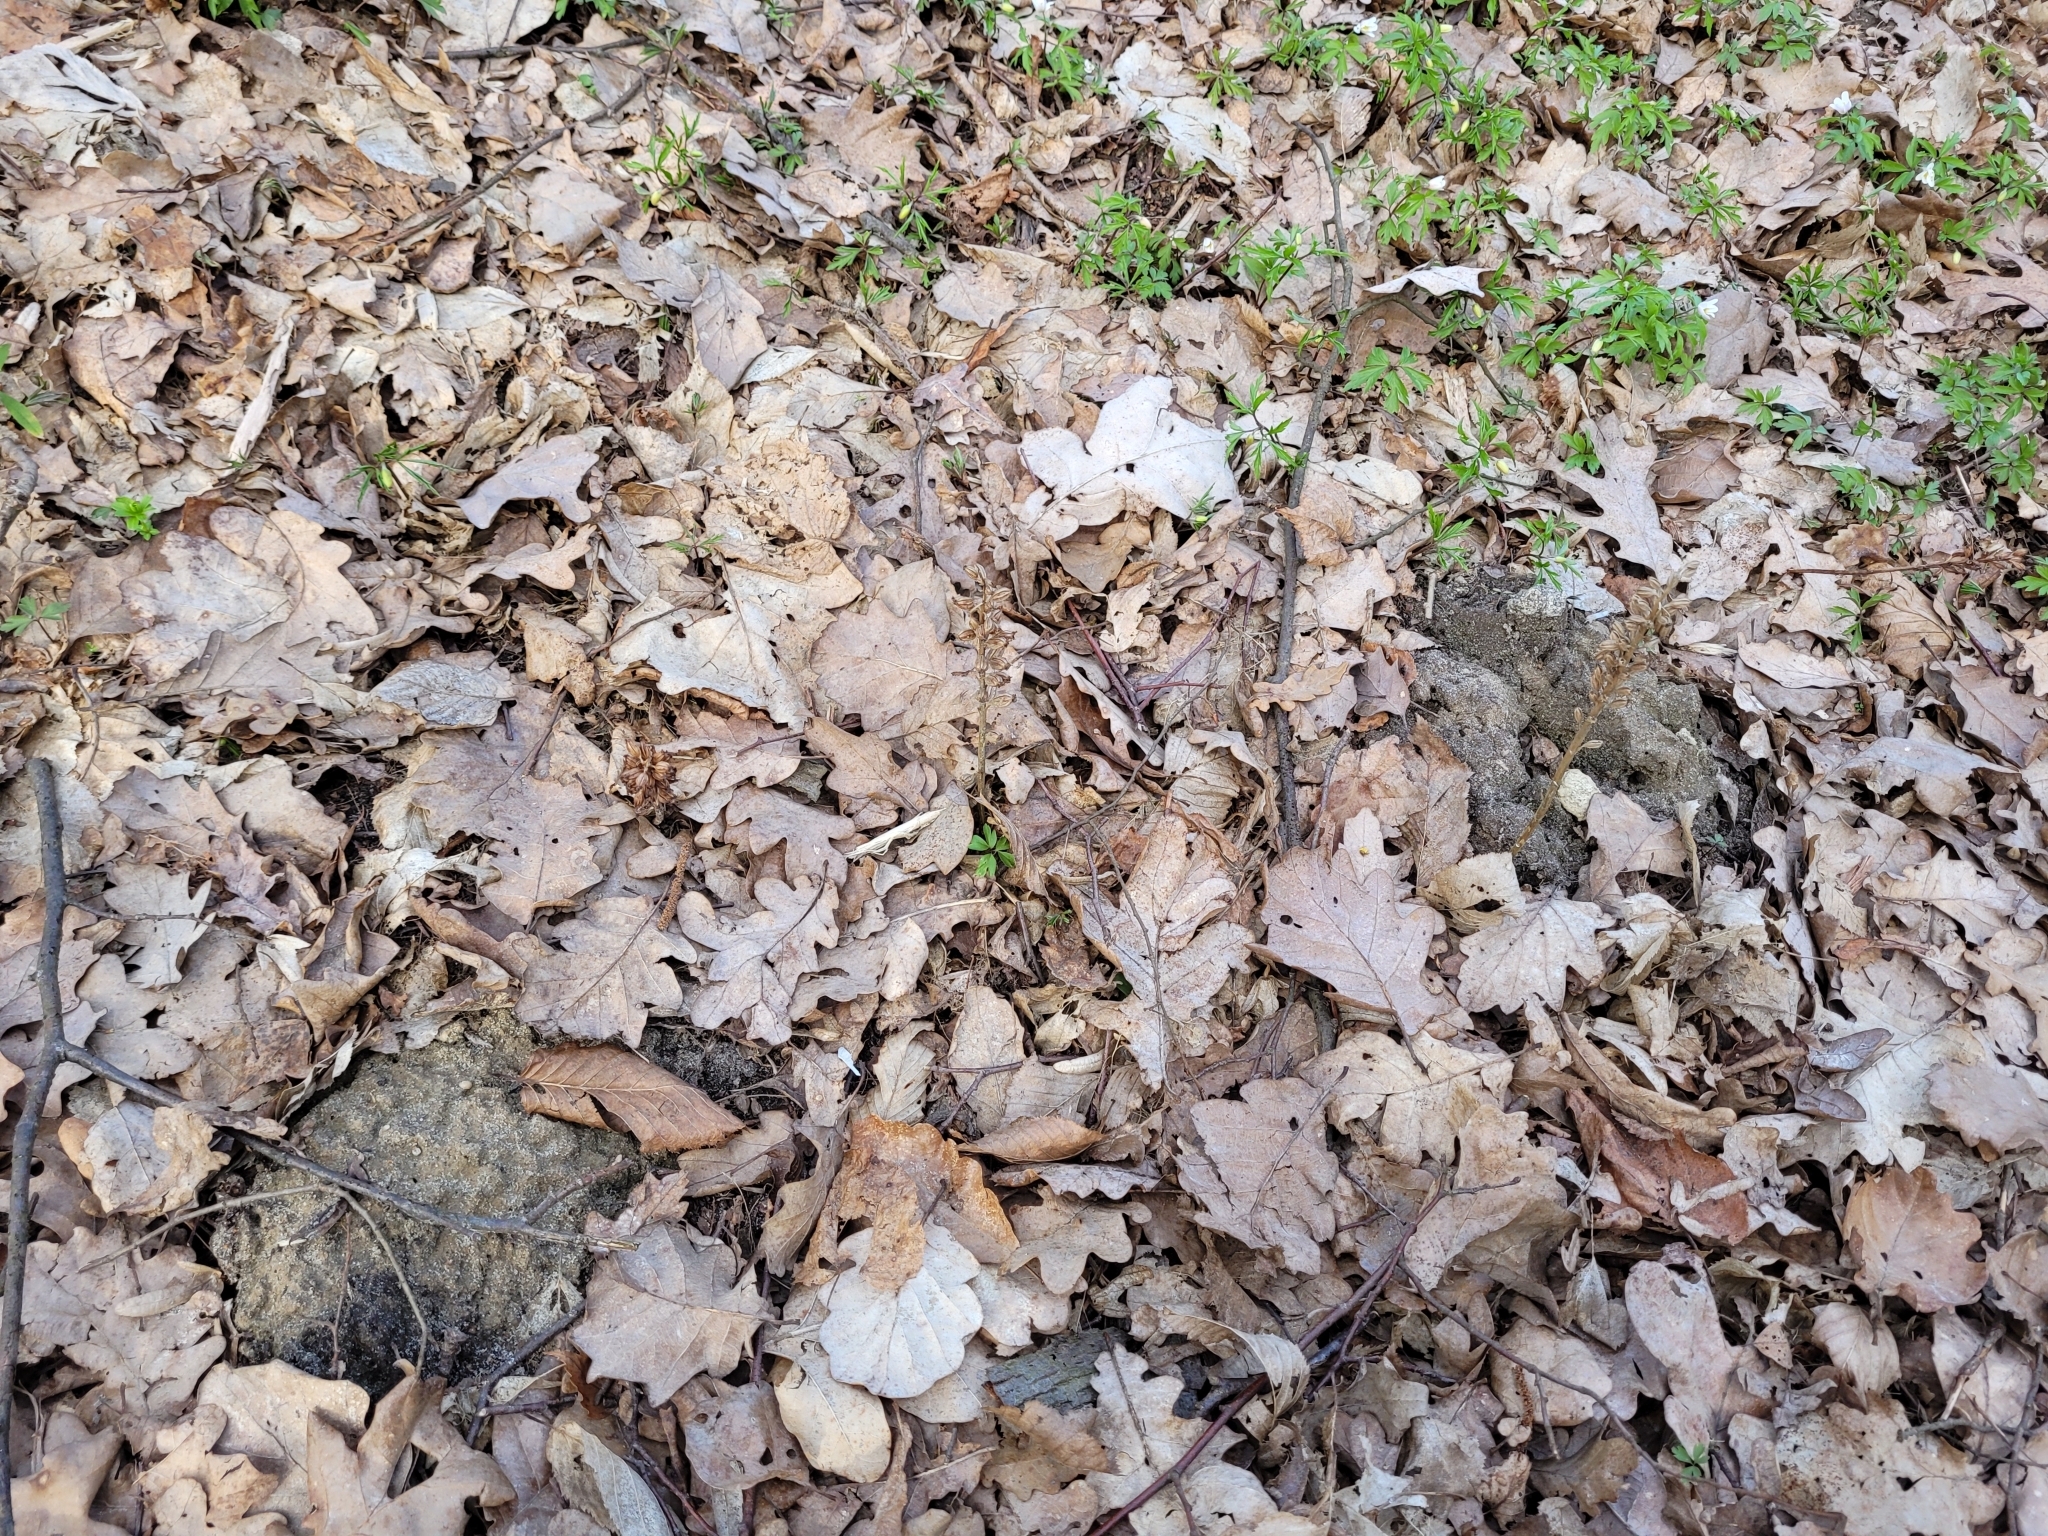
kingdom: Plantae
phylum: Tracheophyta
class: Liliopsida
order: Asparagales
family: Orchidaceae
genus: Neottia
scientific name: Neottia nidus-avis
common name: Bird's-nest orchid
